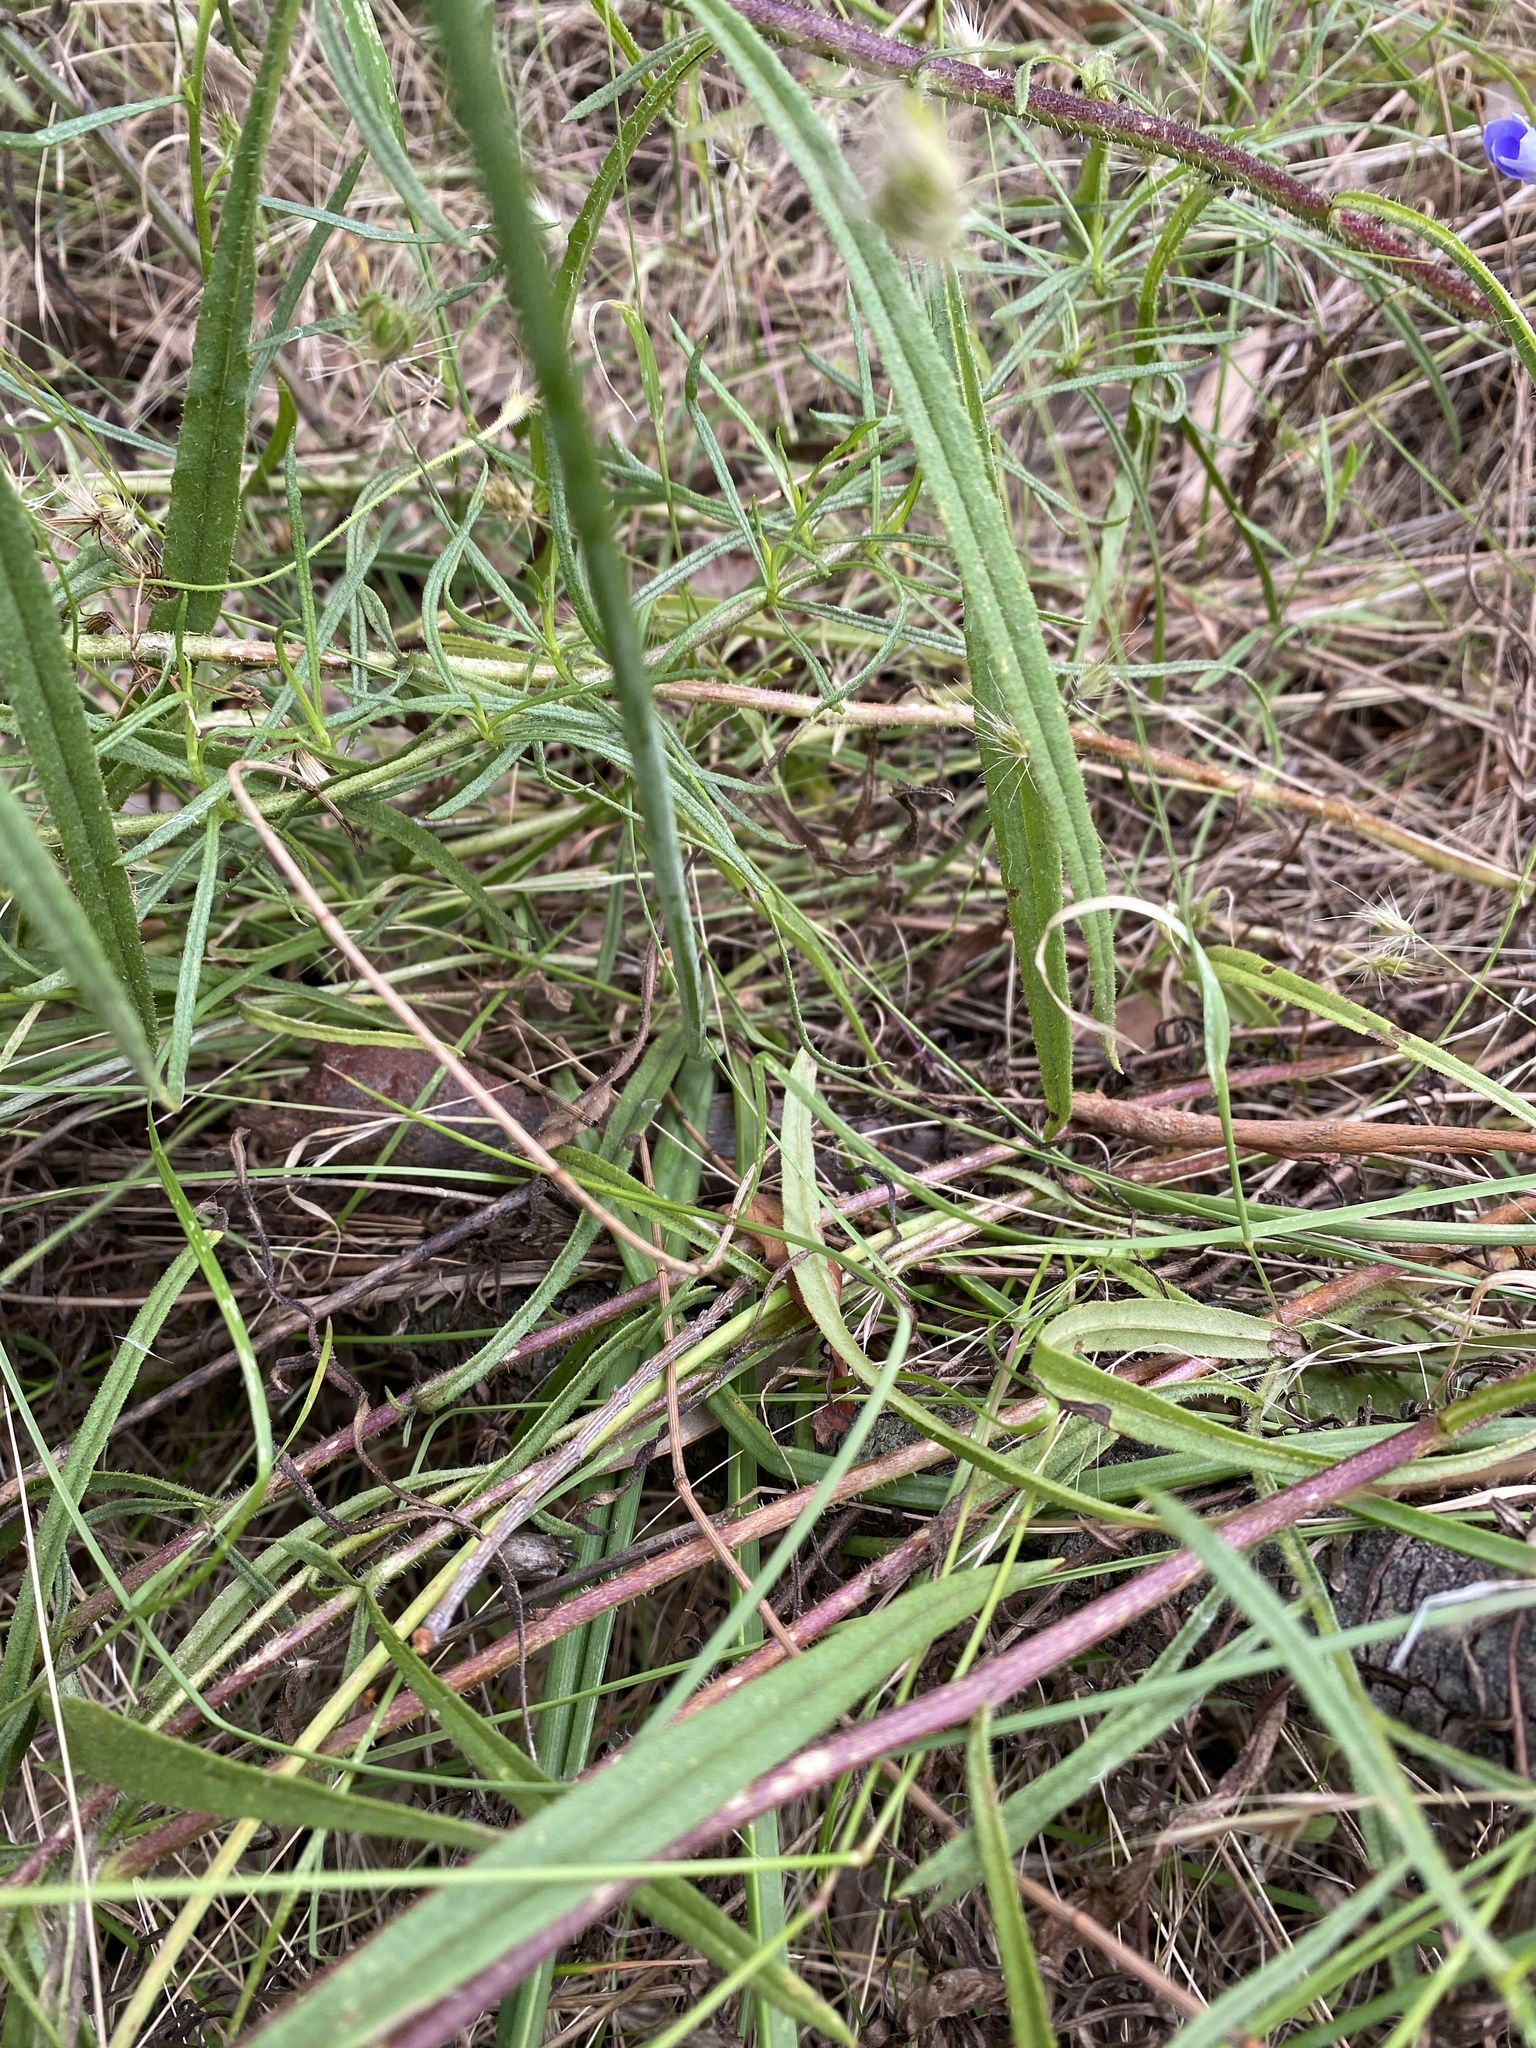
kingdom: Plantae
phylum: Tracheophyta
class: Liliopsida
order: Asparagales
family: Asparagaceae
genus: Thysanotus
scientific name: Thysanotus tuberosus
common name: Common fringed-lily
